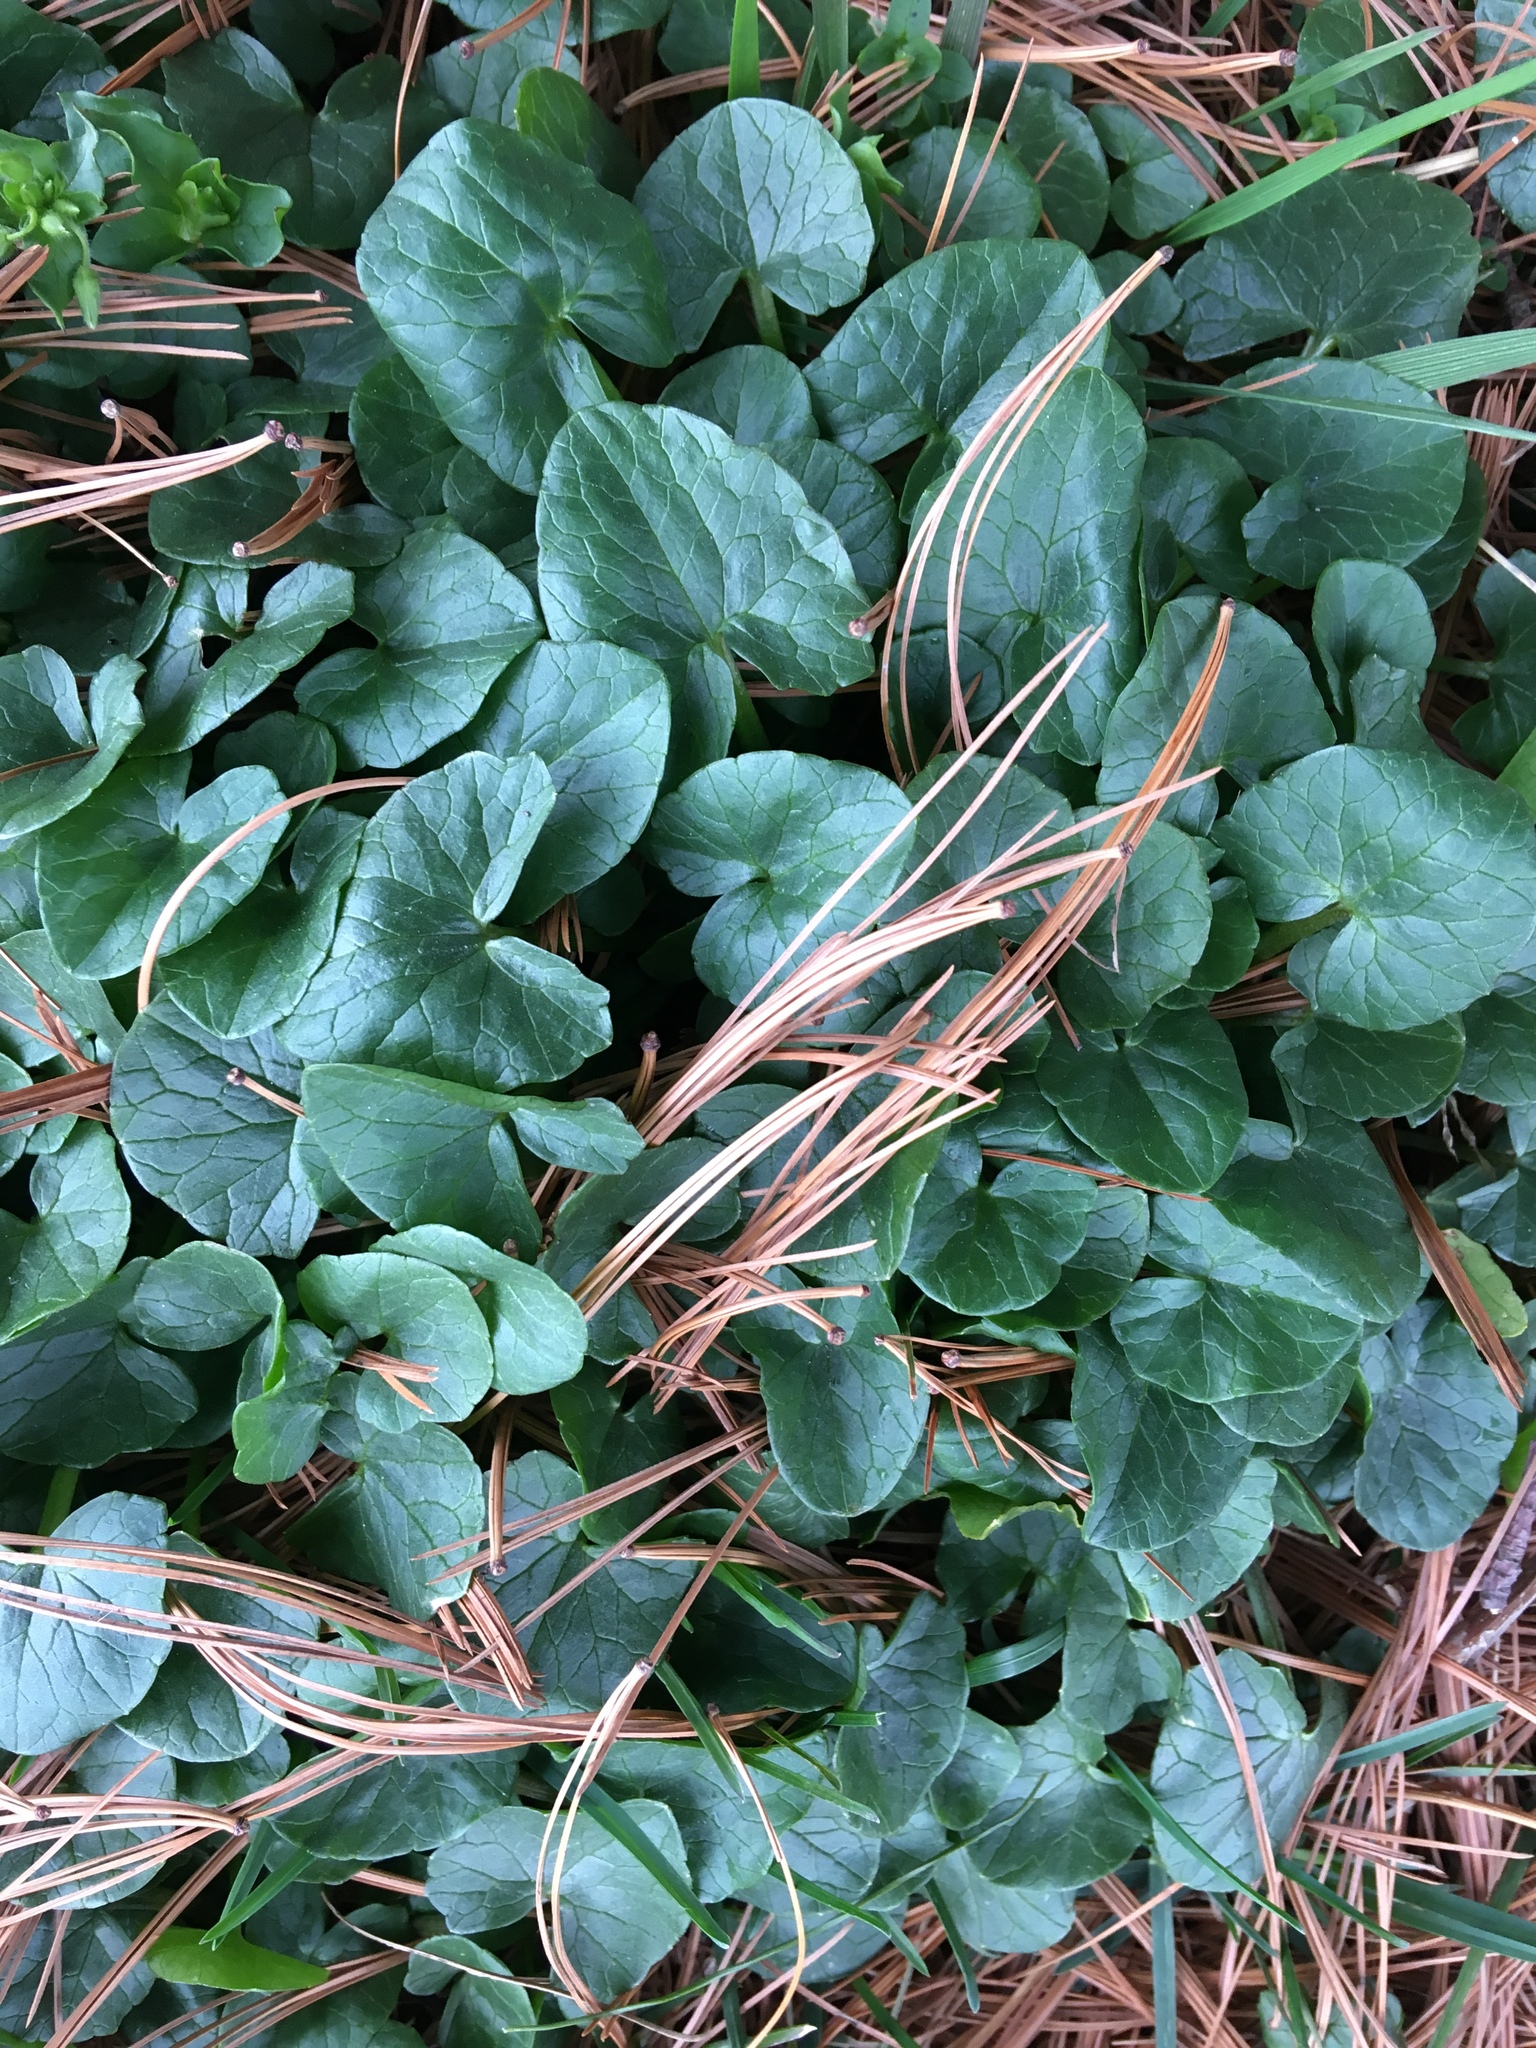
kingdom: Plantae
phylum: Tracheophyta
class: Magnoliopsida
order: Ranunculales
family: Ranunculaceae
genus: Ficaria
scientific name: Ficaria verna
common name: Lesser celandine
